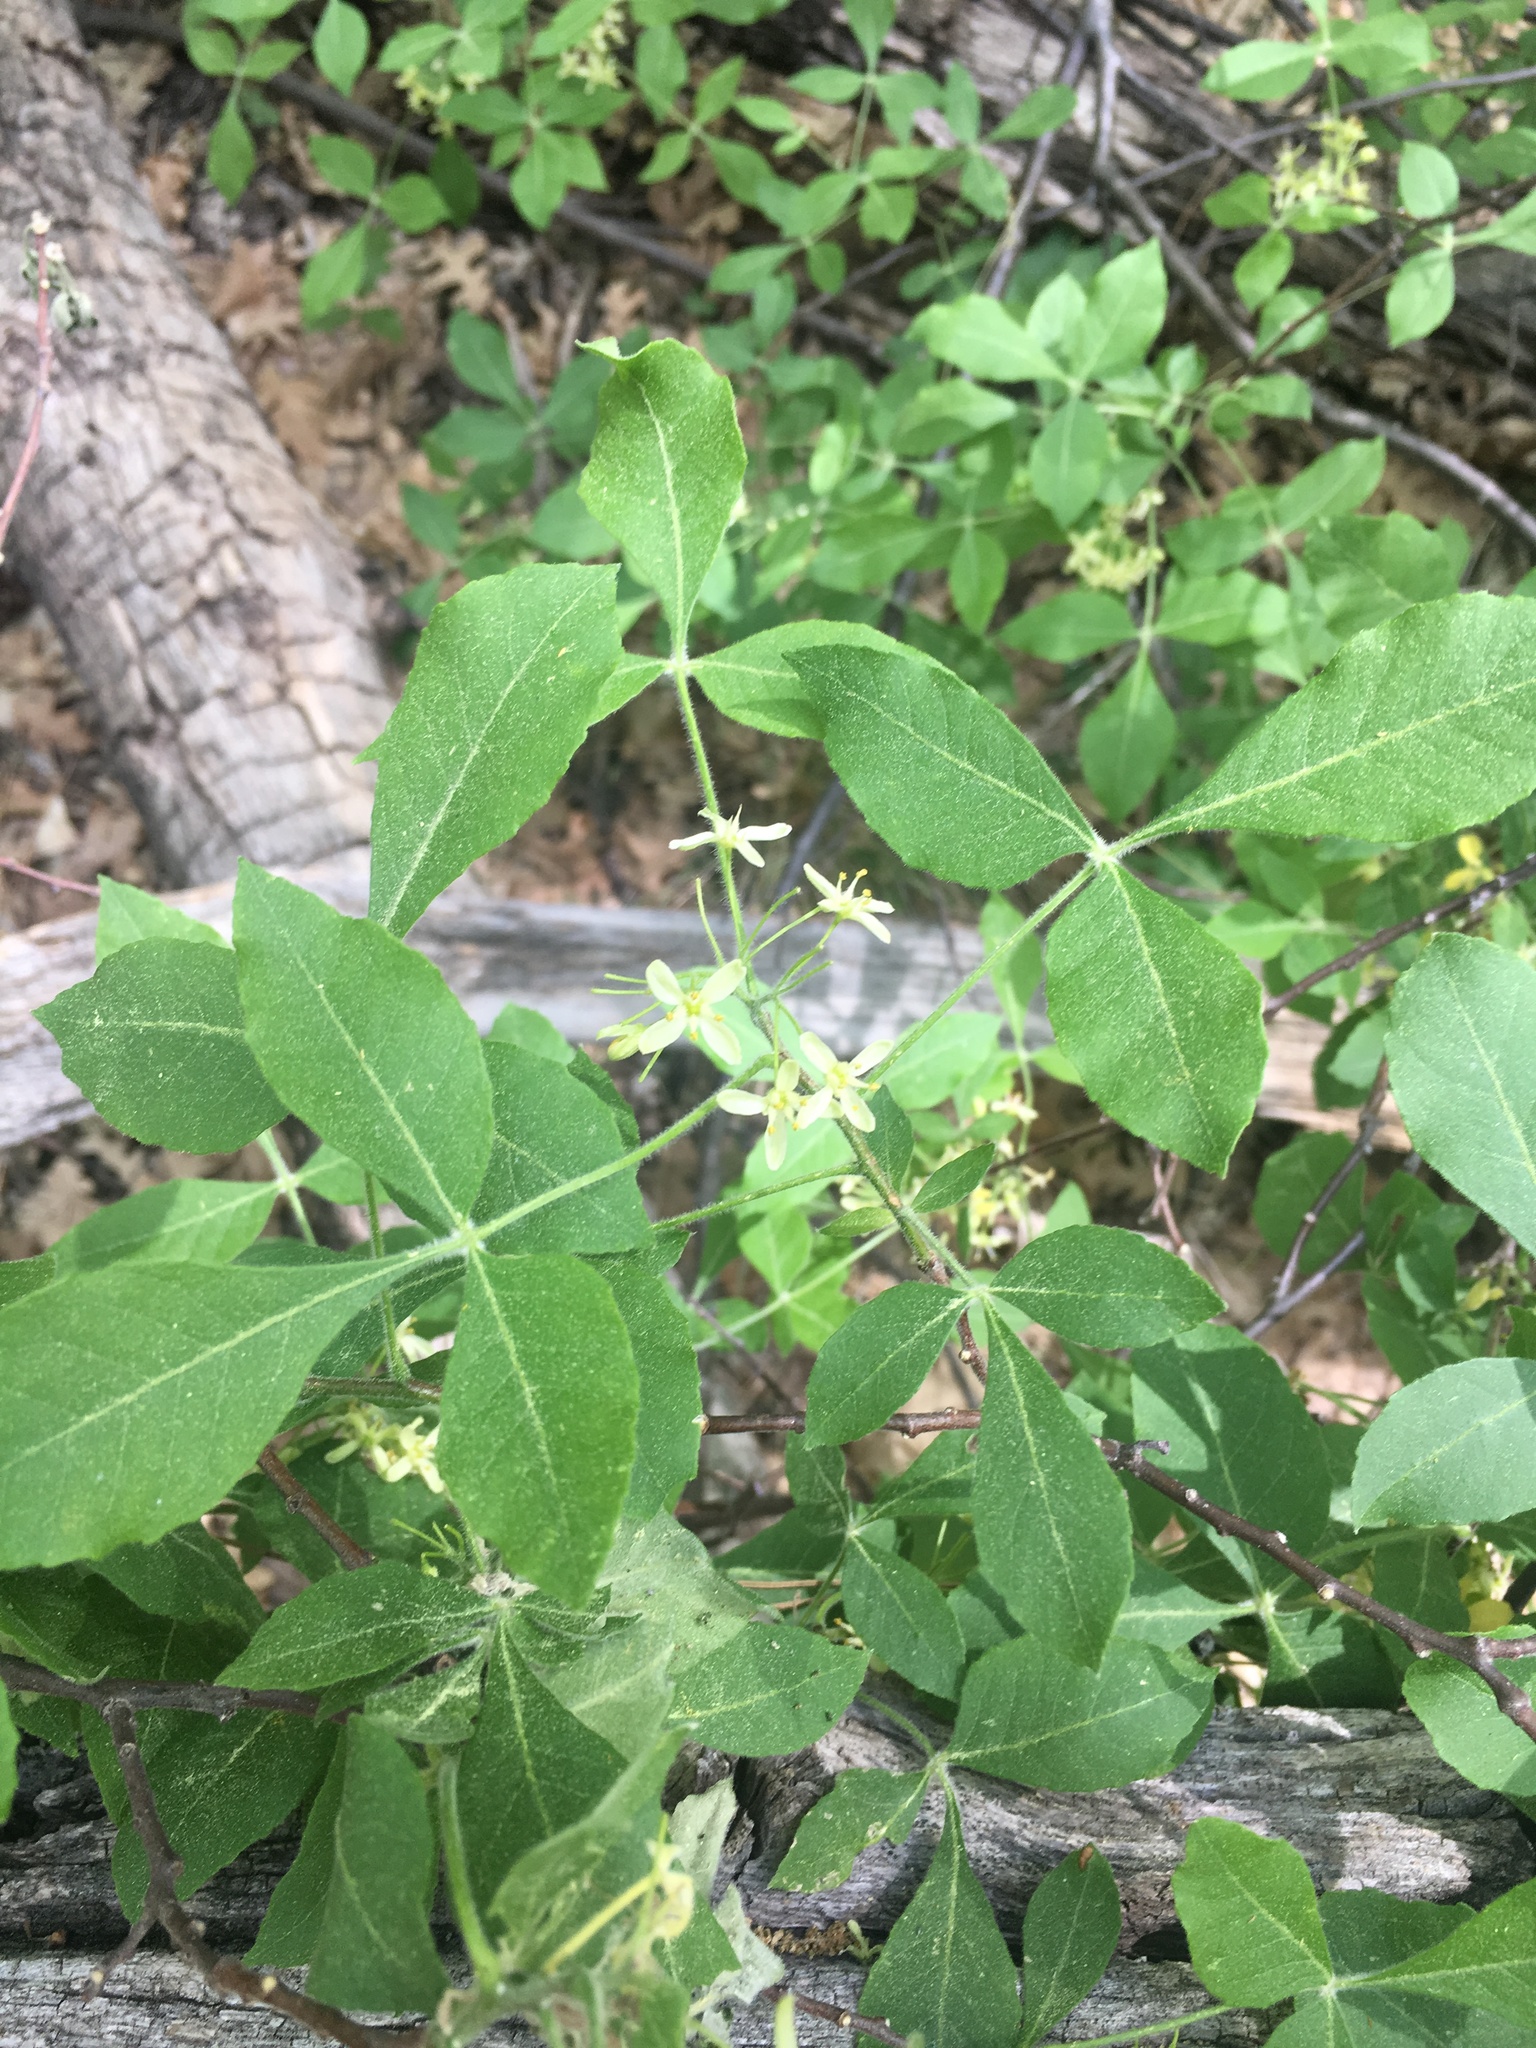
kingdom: Plantae
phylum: Tracheophyta
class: Magnoliopsida
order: Sapindales
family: Rutaceae
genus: Ptelea
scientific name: Ptelea trifoliata
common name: Common hop-tree
